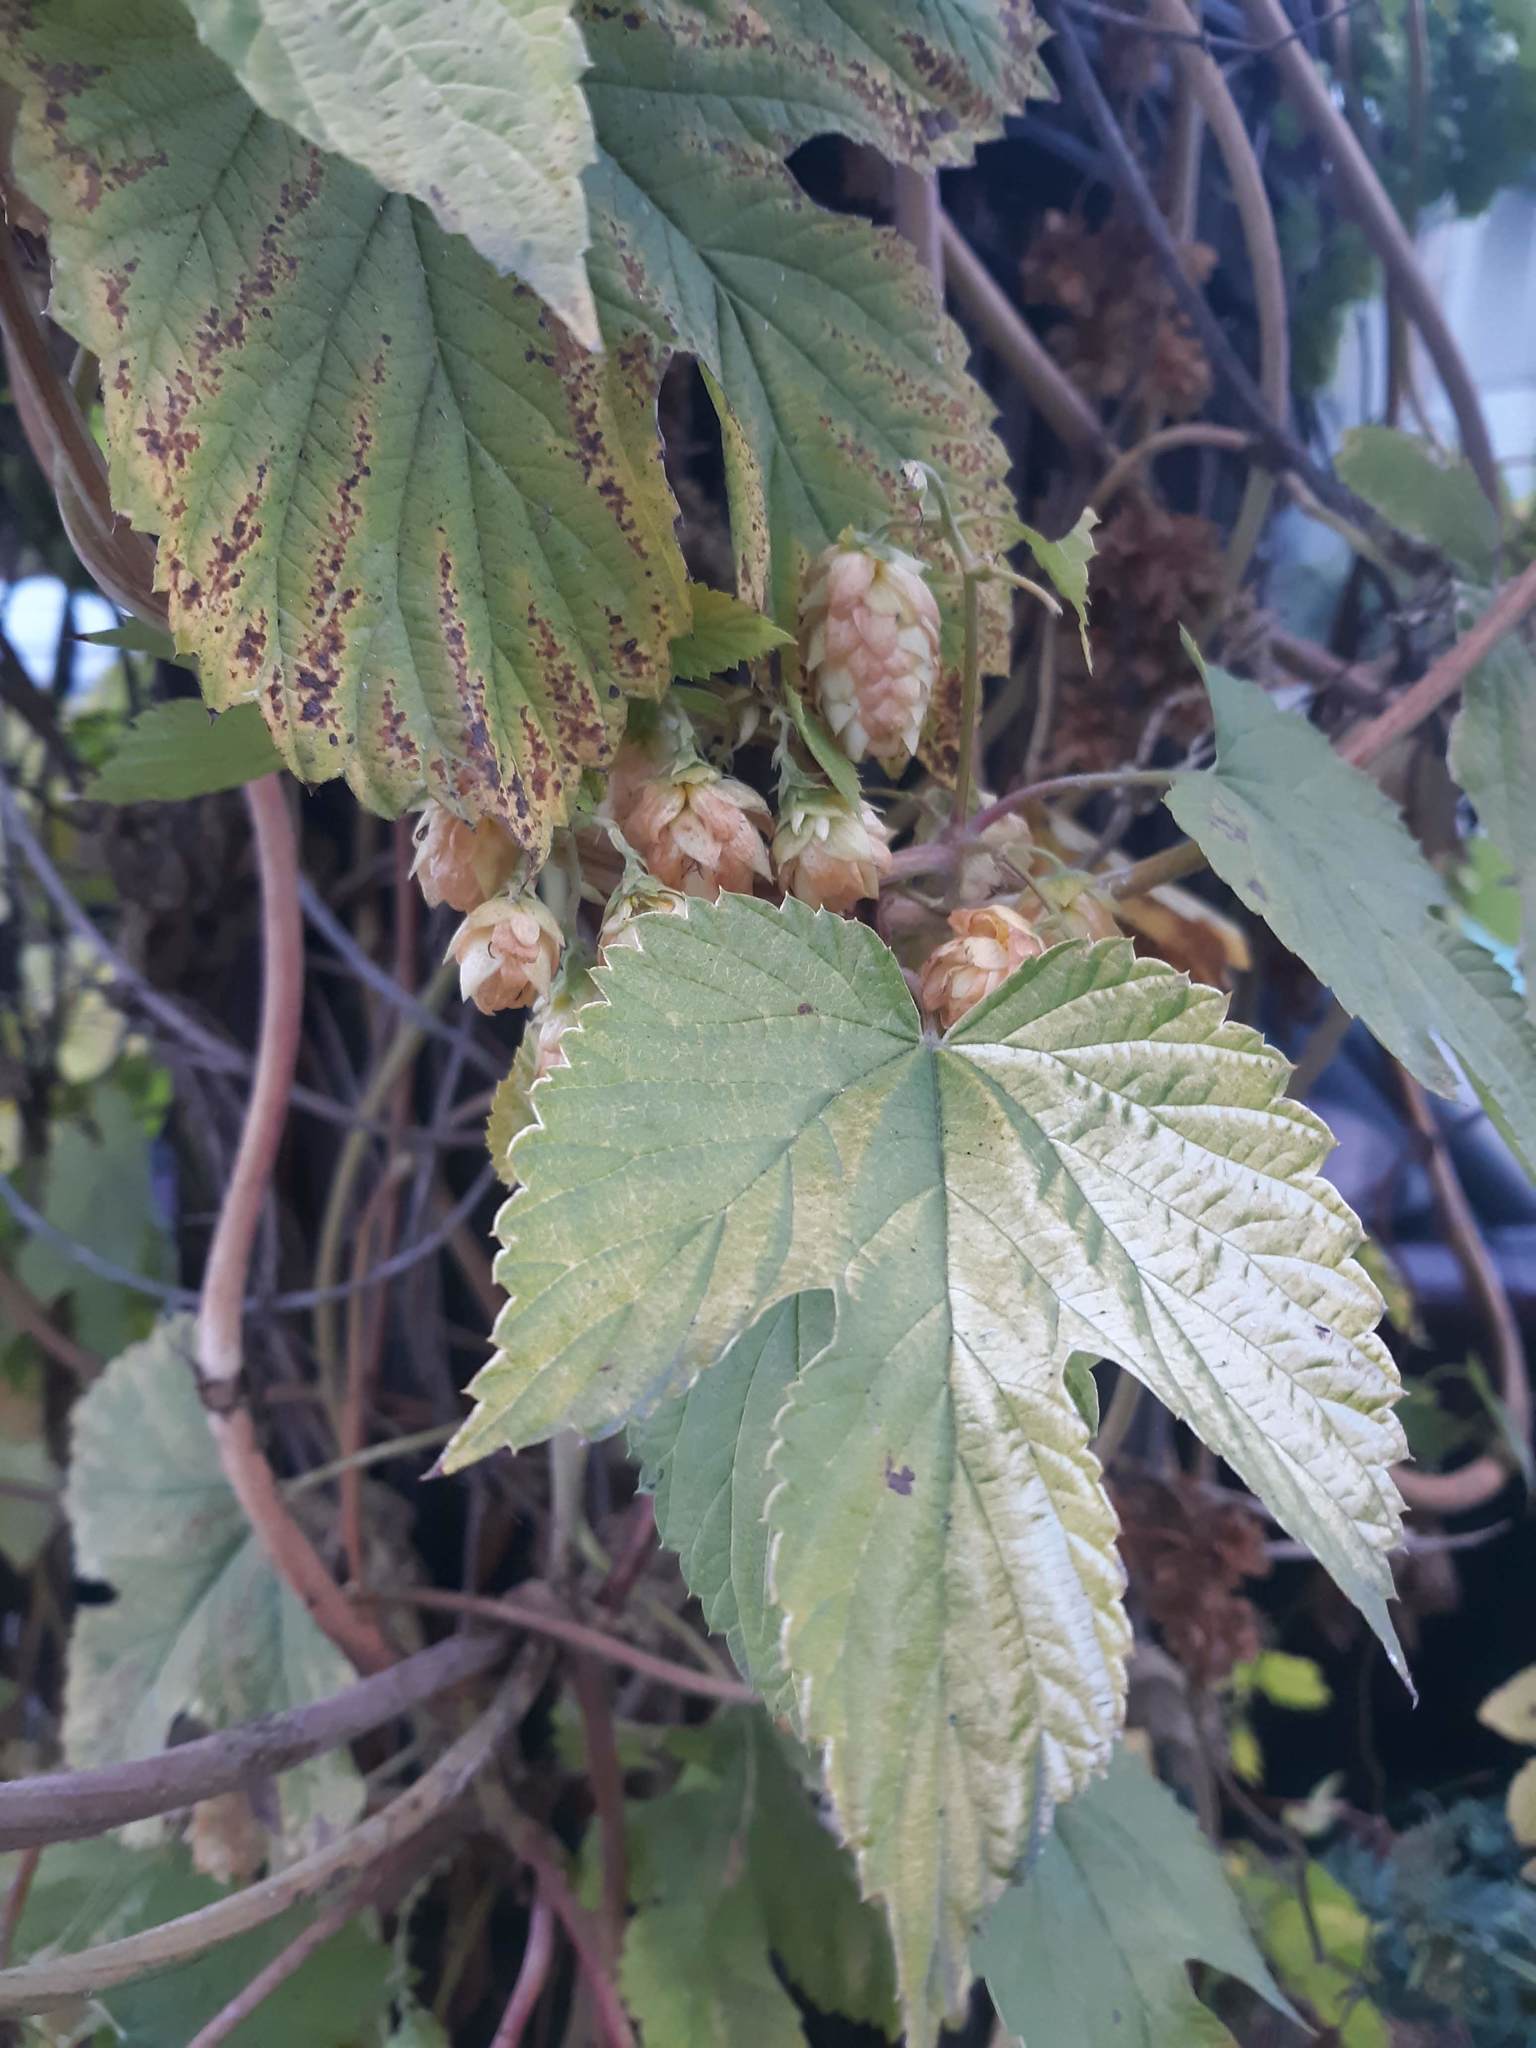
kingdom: Plantae
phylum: Tracheophyta
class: Magnoliopsida
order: Rosales
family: Cannabaceae
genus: Humulus
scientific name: Humulus lupulus
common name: Hop
